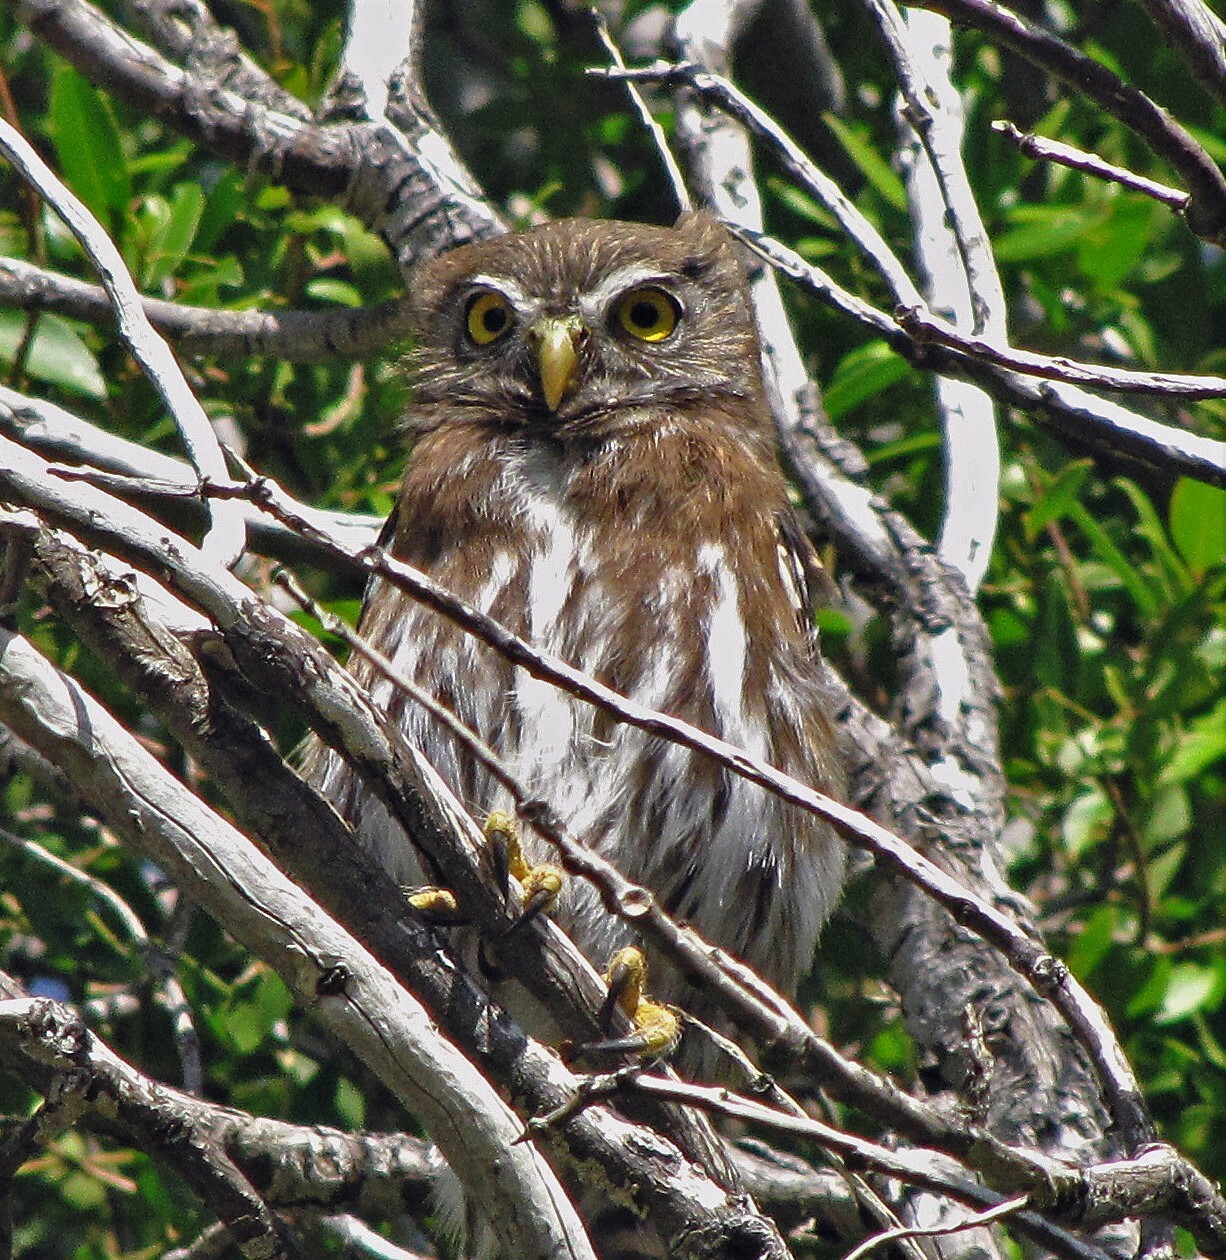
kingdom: Animalia
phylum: Chordata
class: Aves
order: Strigiformes
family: Strigidae
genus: Glaucidium
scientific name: Glaucidium nana
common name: Austral pygmy-owl
